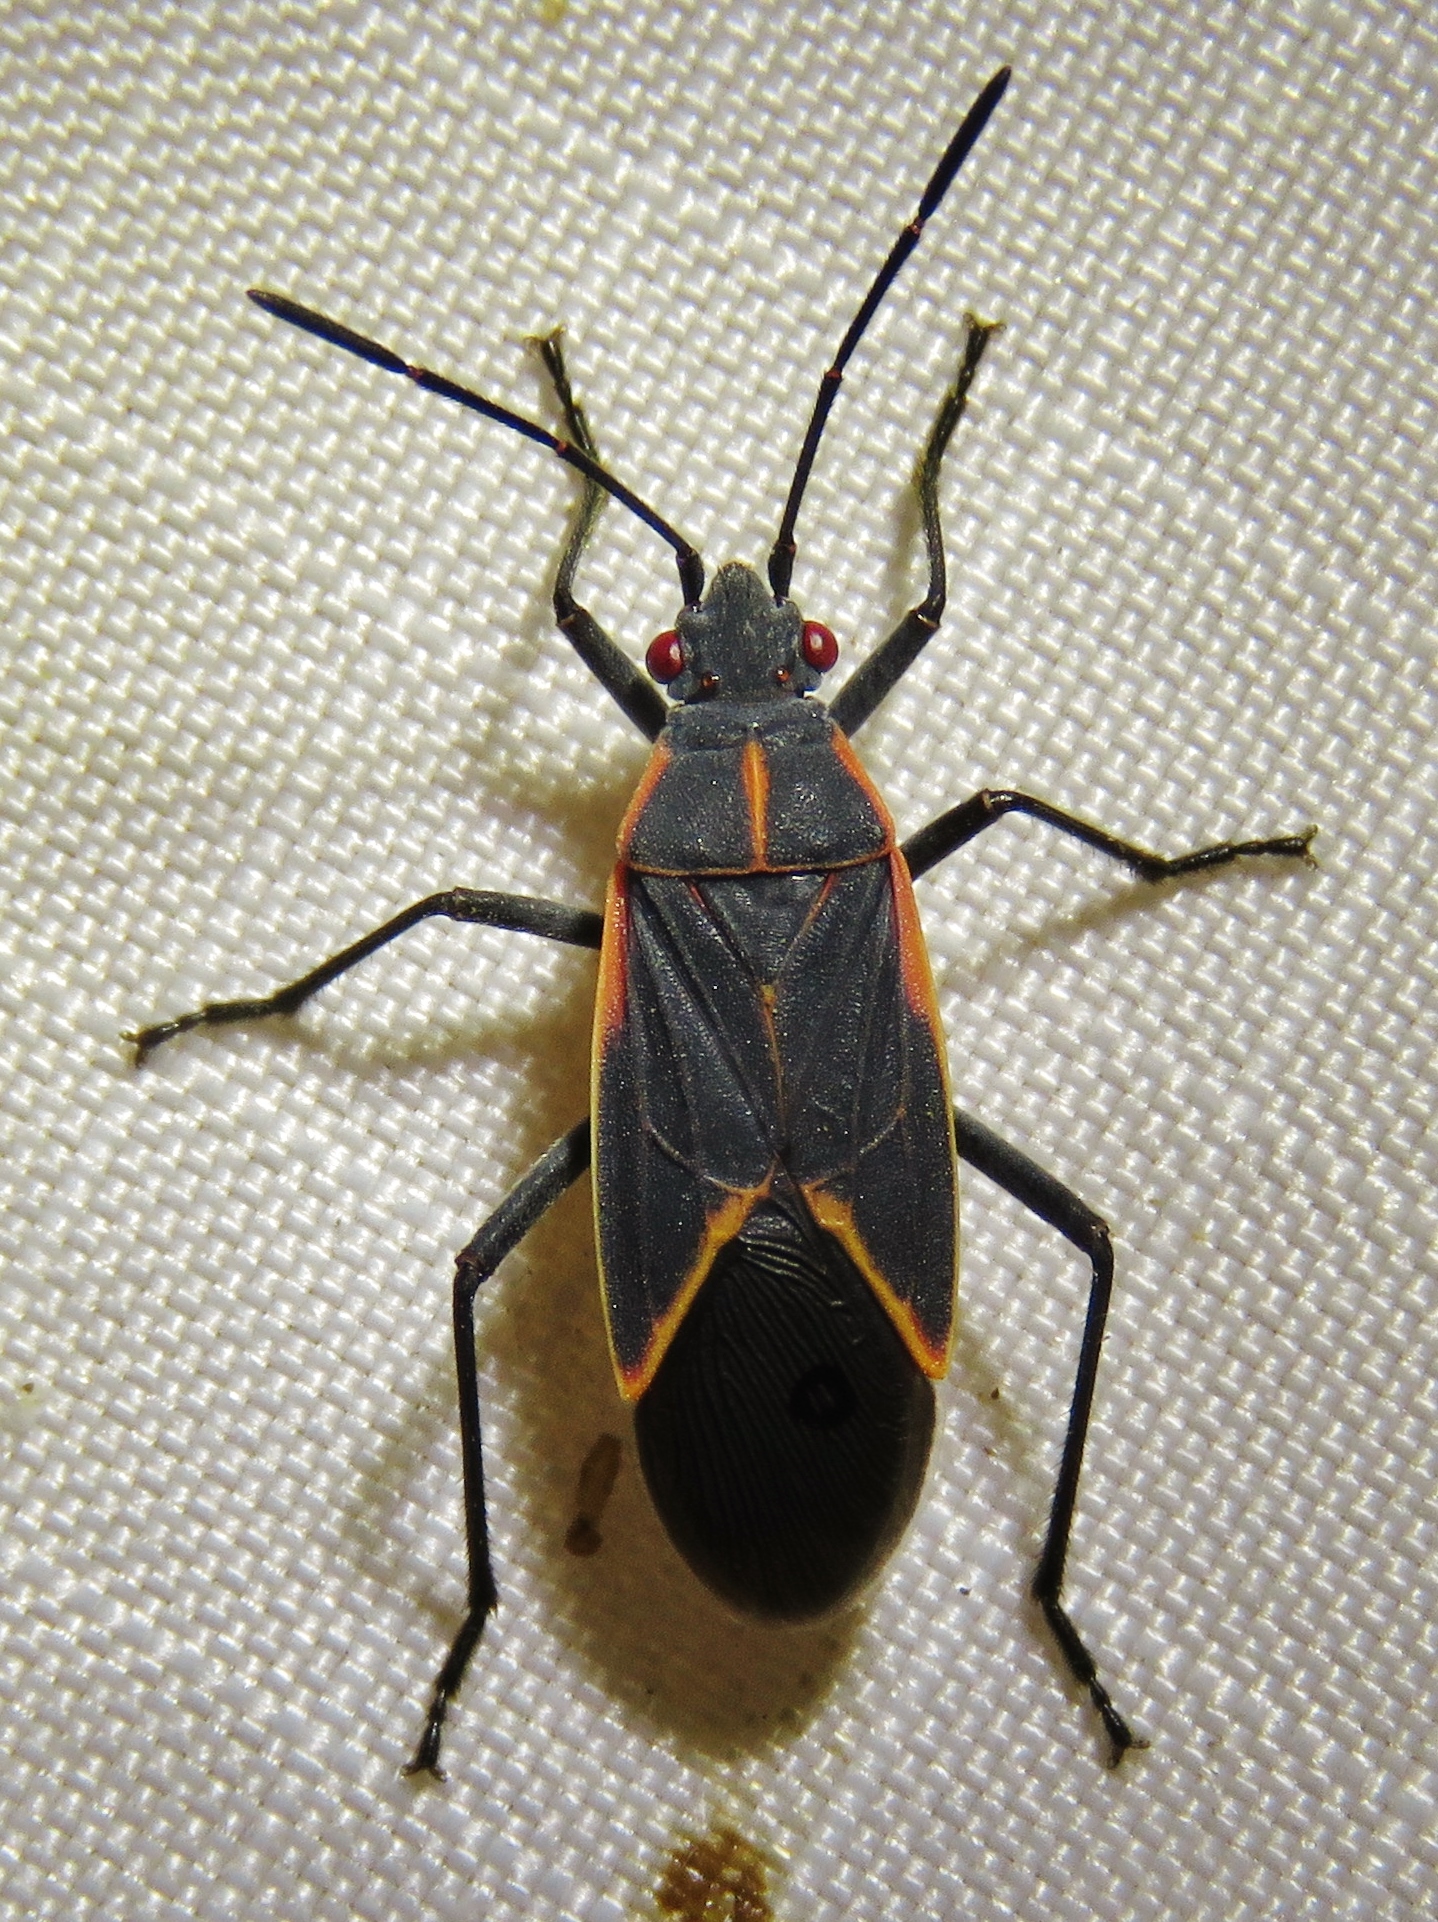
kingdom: Animalia
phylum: Arthropoda
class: Insecta
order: Hemiptera
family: Rhopalidae
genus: Boisea
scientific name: Boisea trivittata
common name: Boxelder bug
